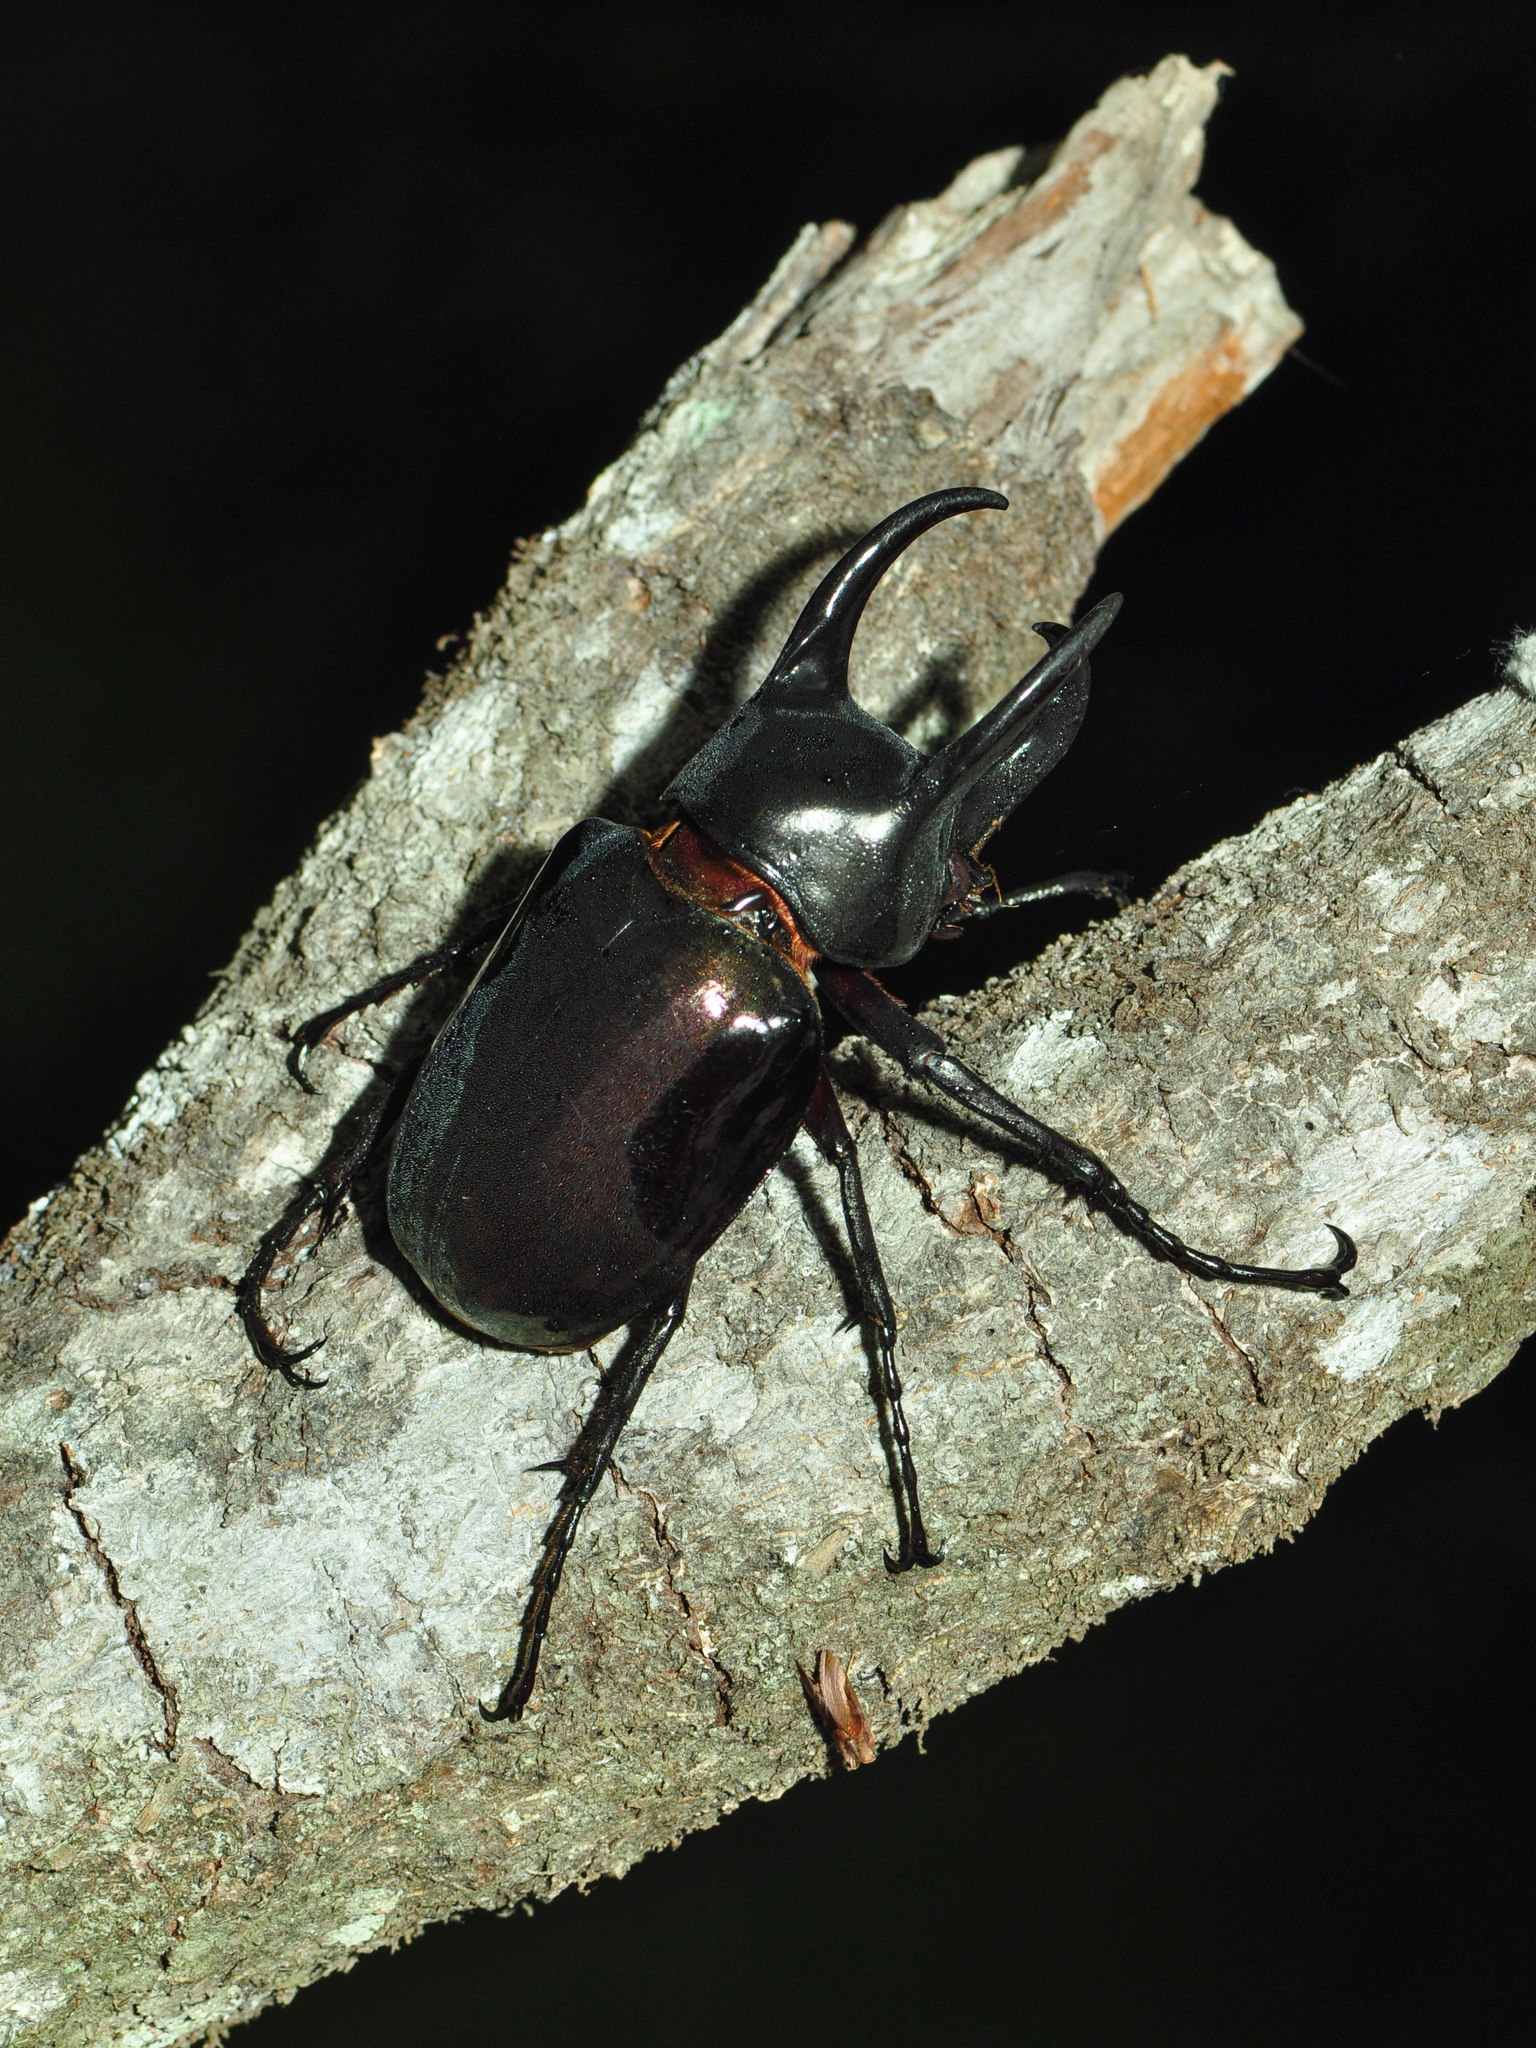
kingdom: Animalia
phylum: Arthropoda
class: Insecta
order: Coleoptera
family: Scarabaeidae
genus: Chalcosoma
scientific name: Chalcosoma chiron
